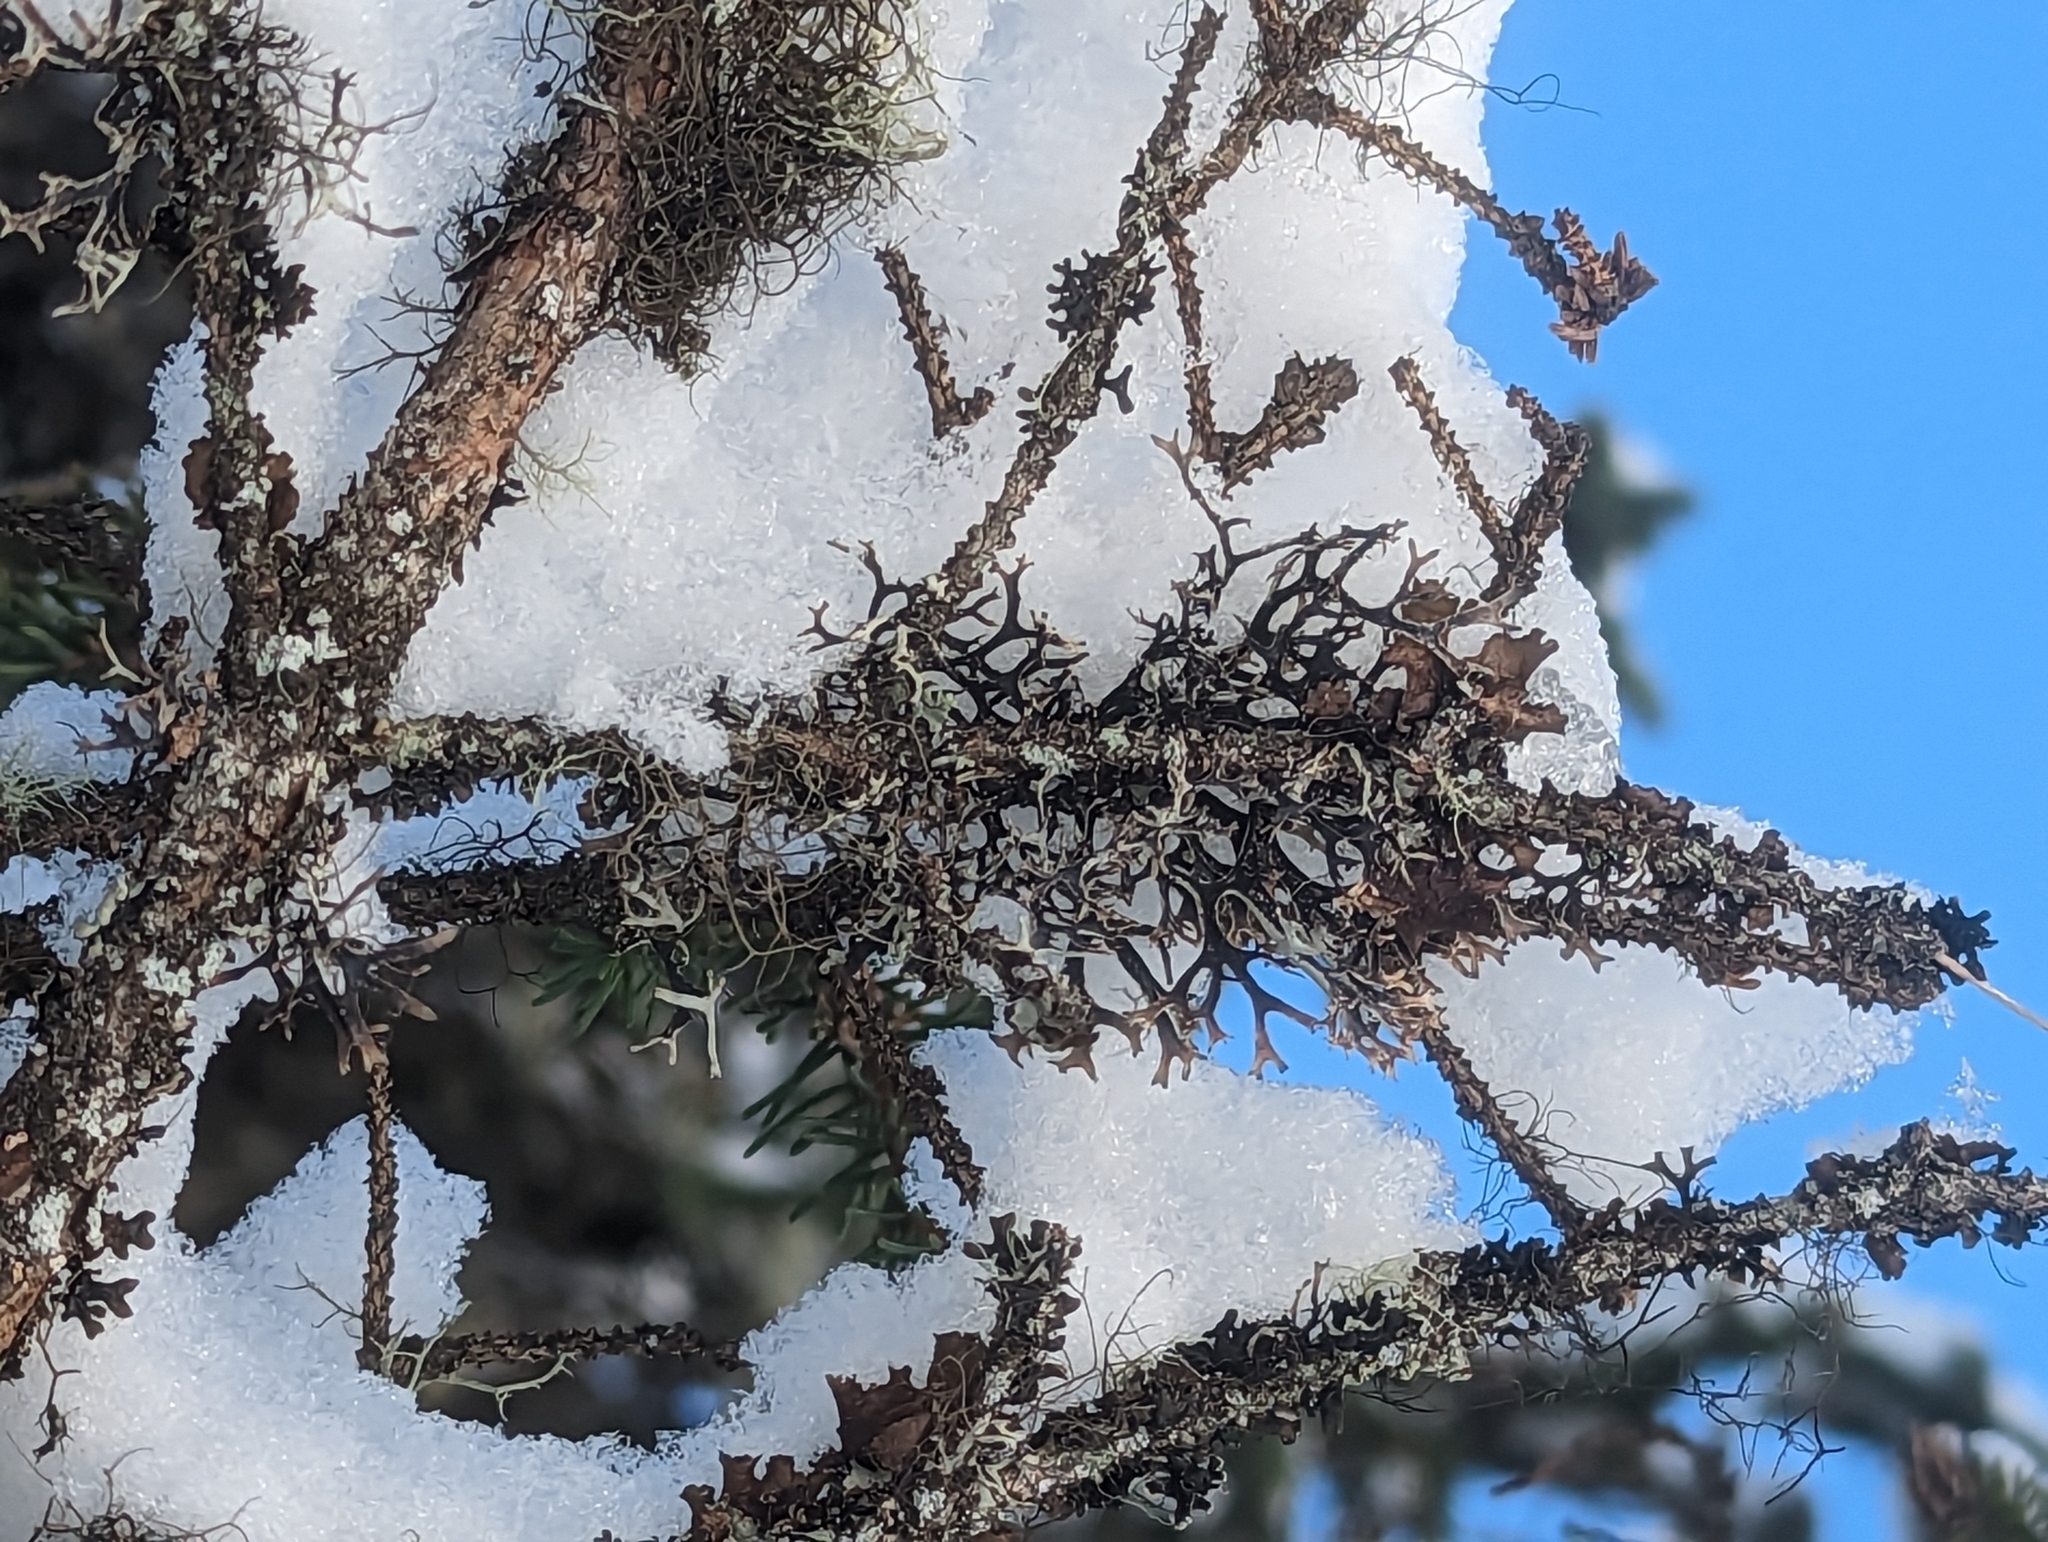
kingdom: Fungi
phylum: Ascomycota
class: Lecanoromycetes
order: Lecanorales
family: Parmeliaceae
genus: Pseudevernia
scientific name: Pseudevernia furfuracea
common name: Tree moss
